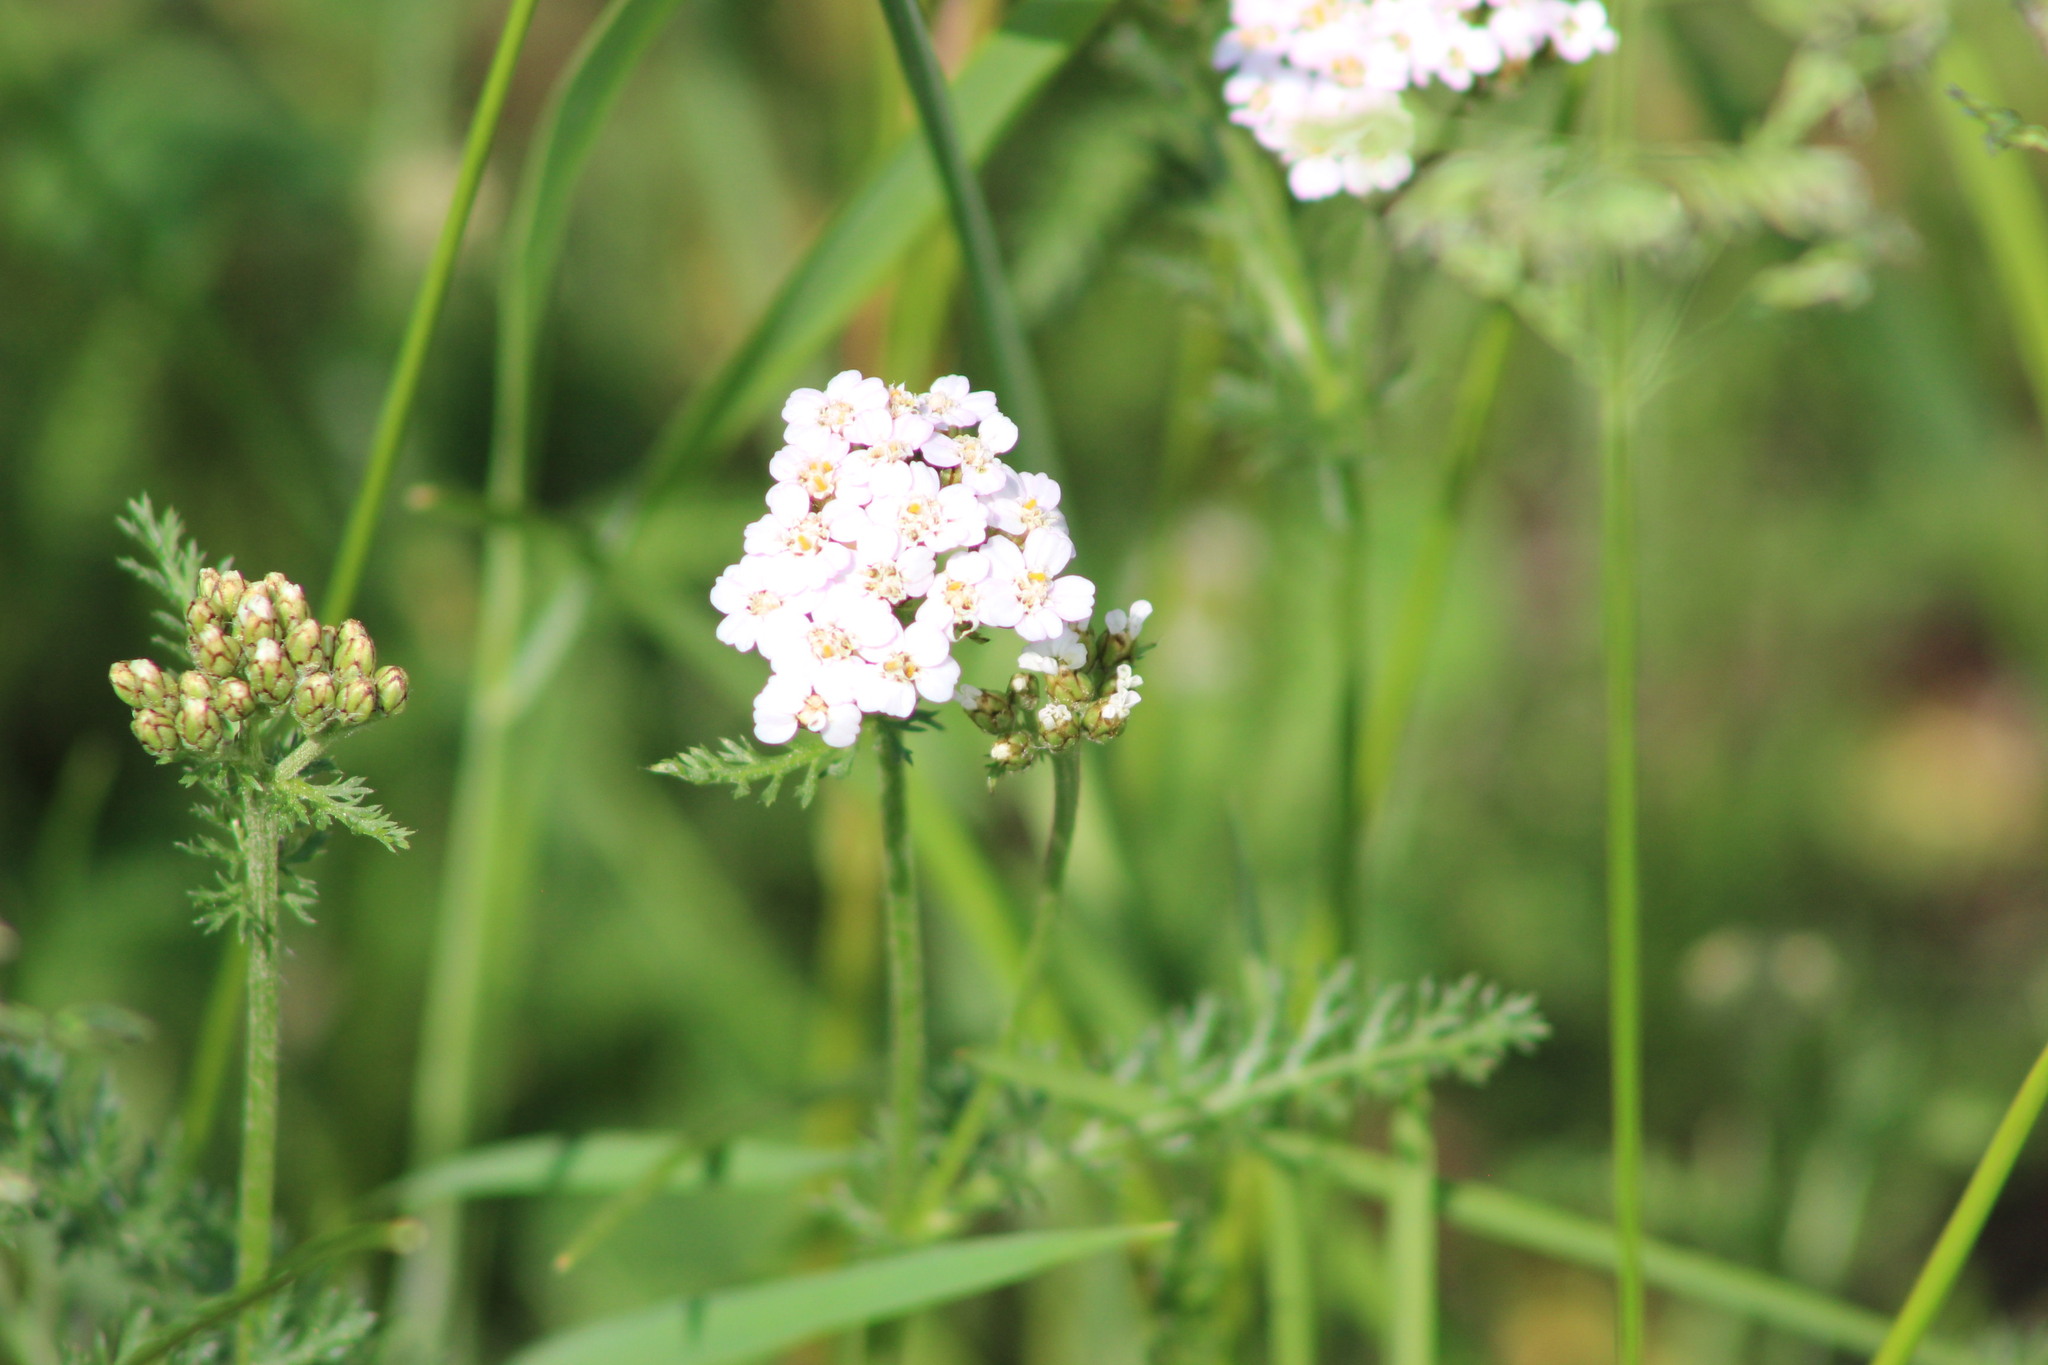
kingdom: Plantae
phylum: Tracheophyta
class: Magnoliopsida
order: Asterales
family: Asteraceae
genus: Achillea
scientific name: Achillea millefolium
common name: Yarrow
